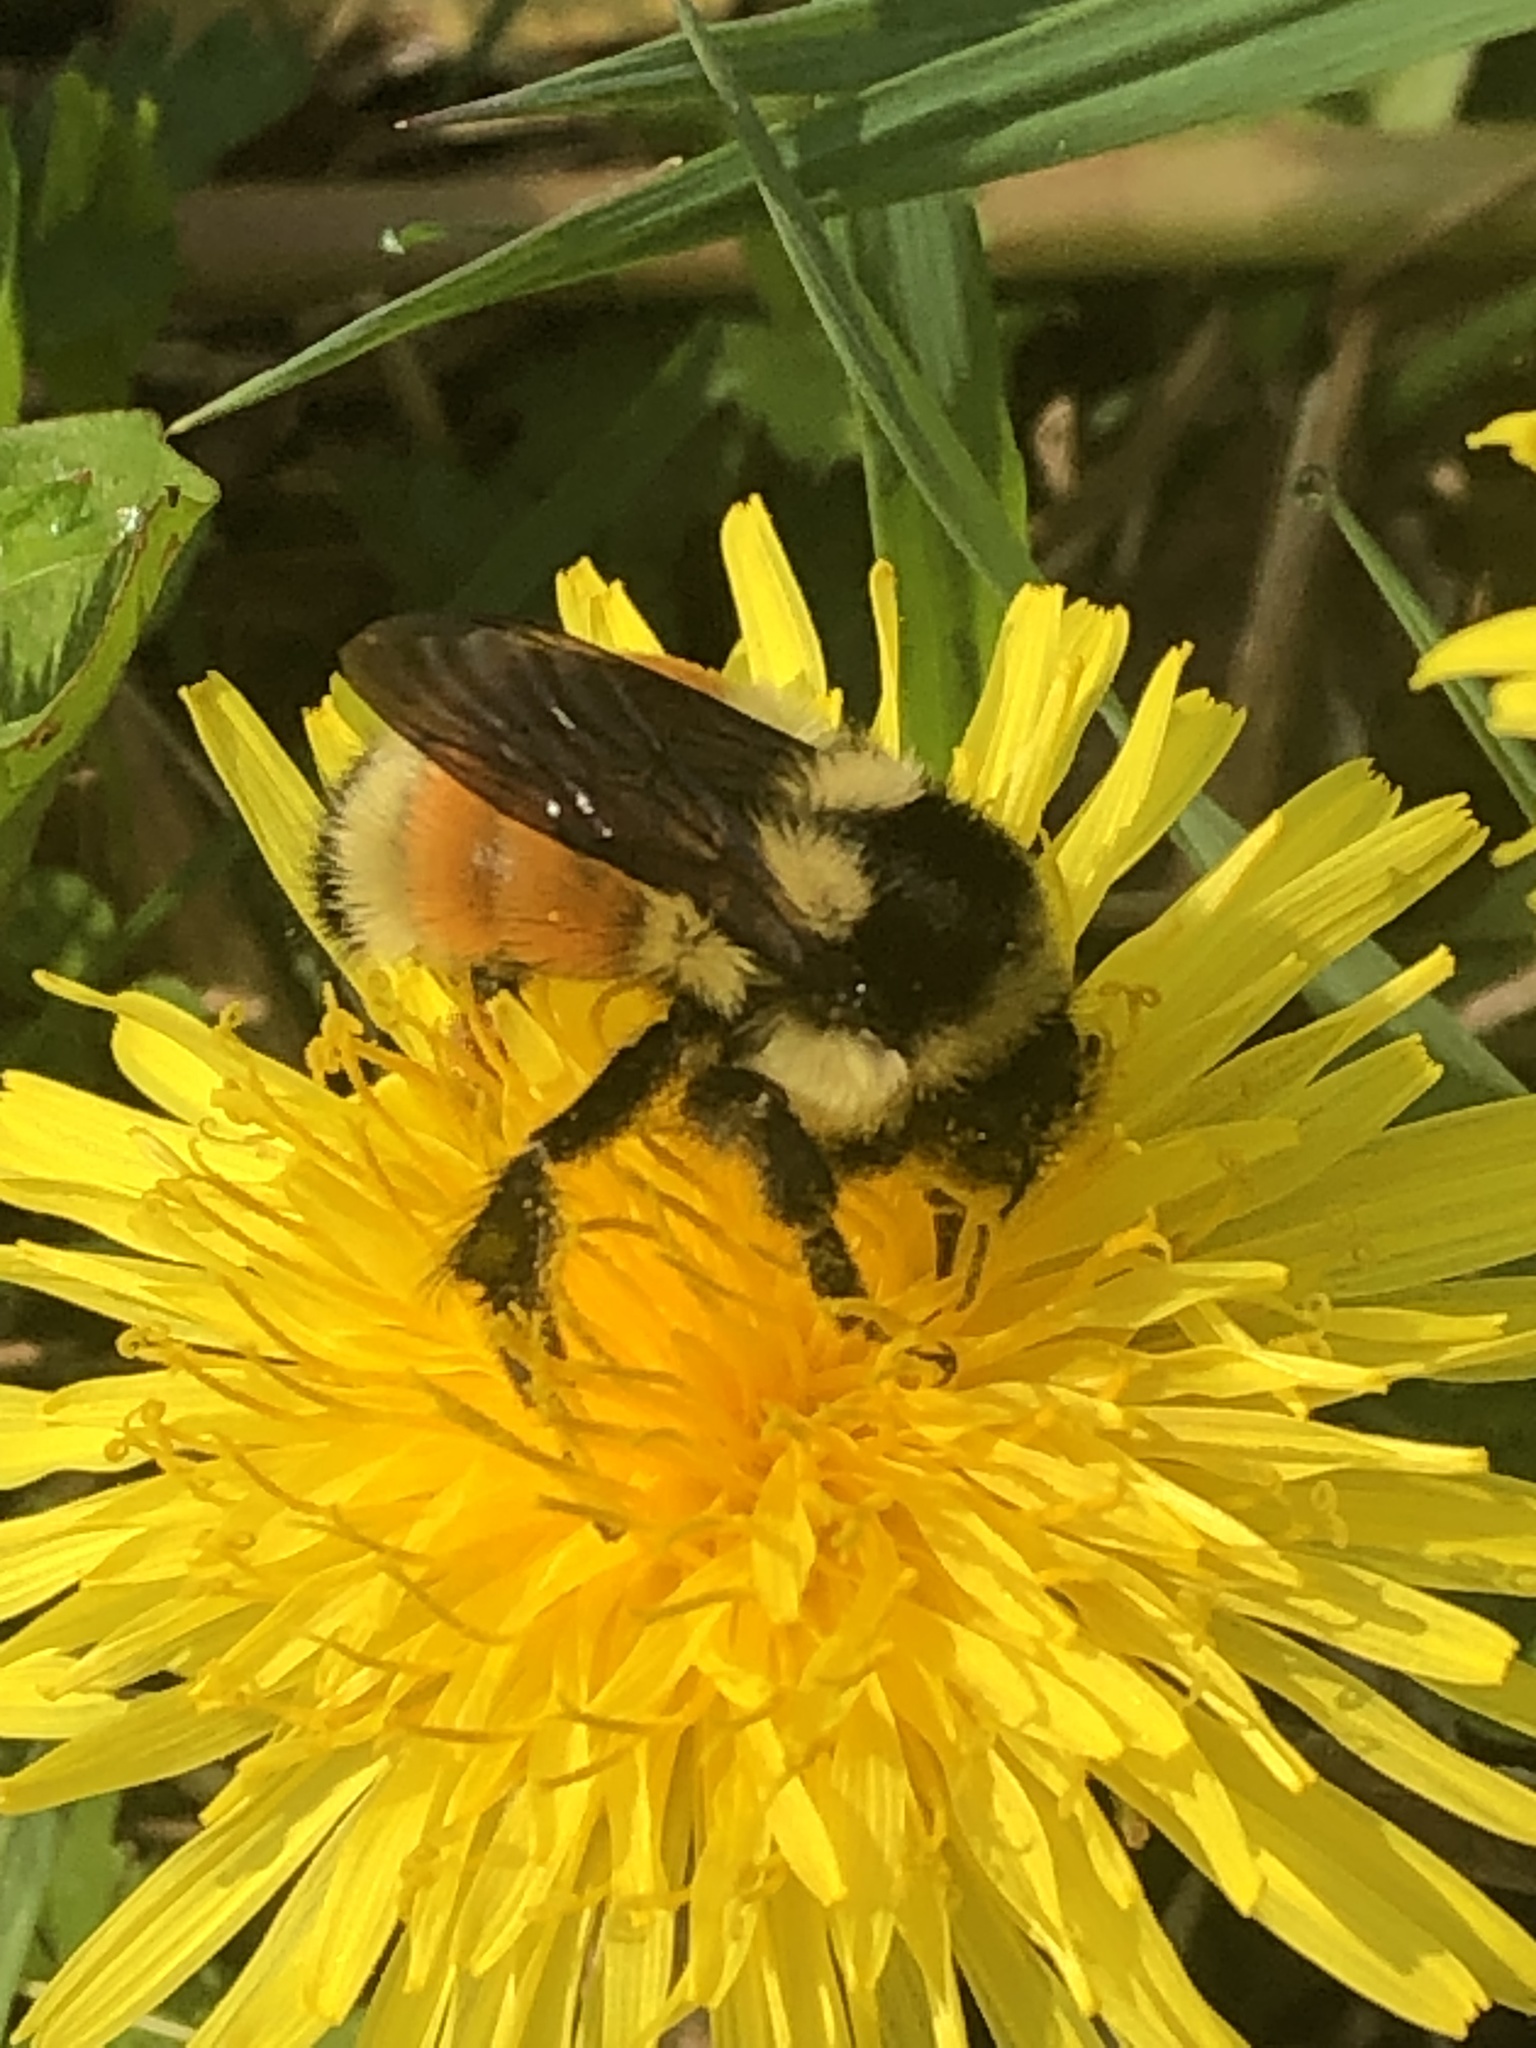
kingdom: Animalia
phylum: Arthropoda
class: Insecta
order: Hymenoptera
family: Apidae
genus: Bombus
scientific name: Bombus ternarius
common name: Tri-colored bumble bee
